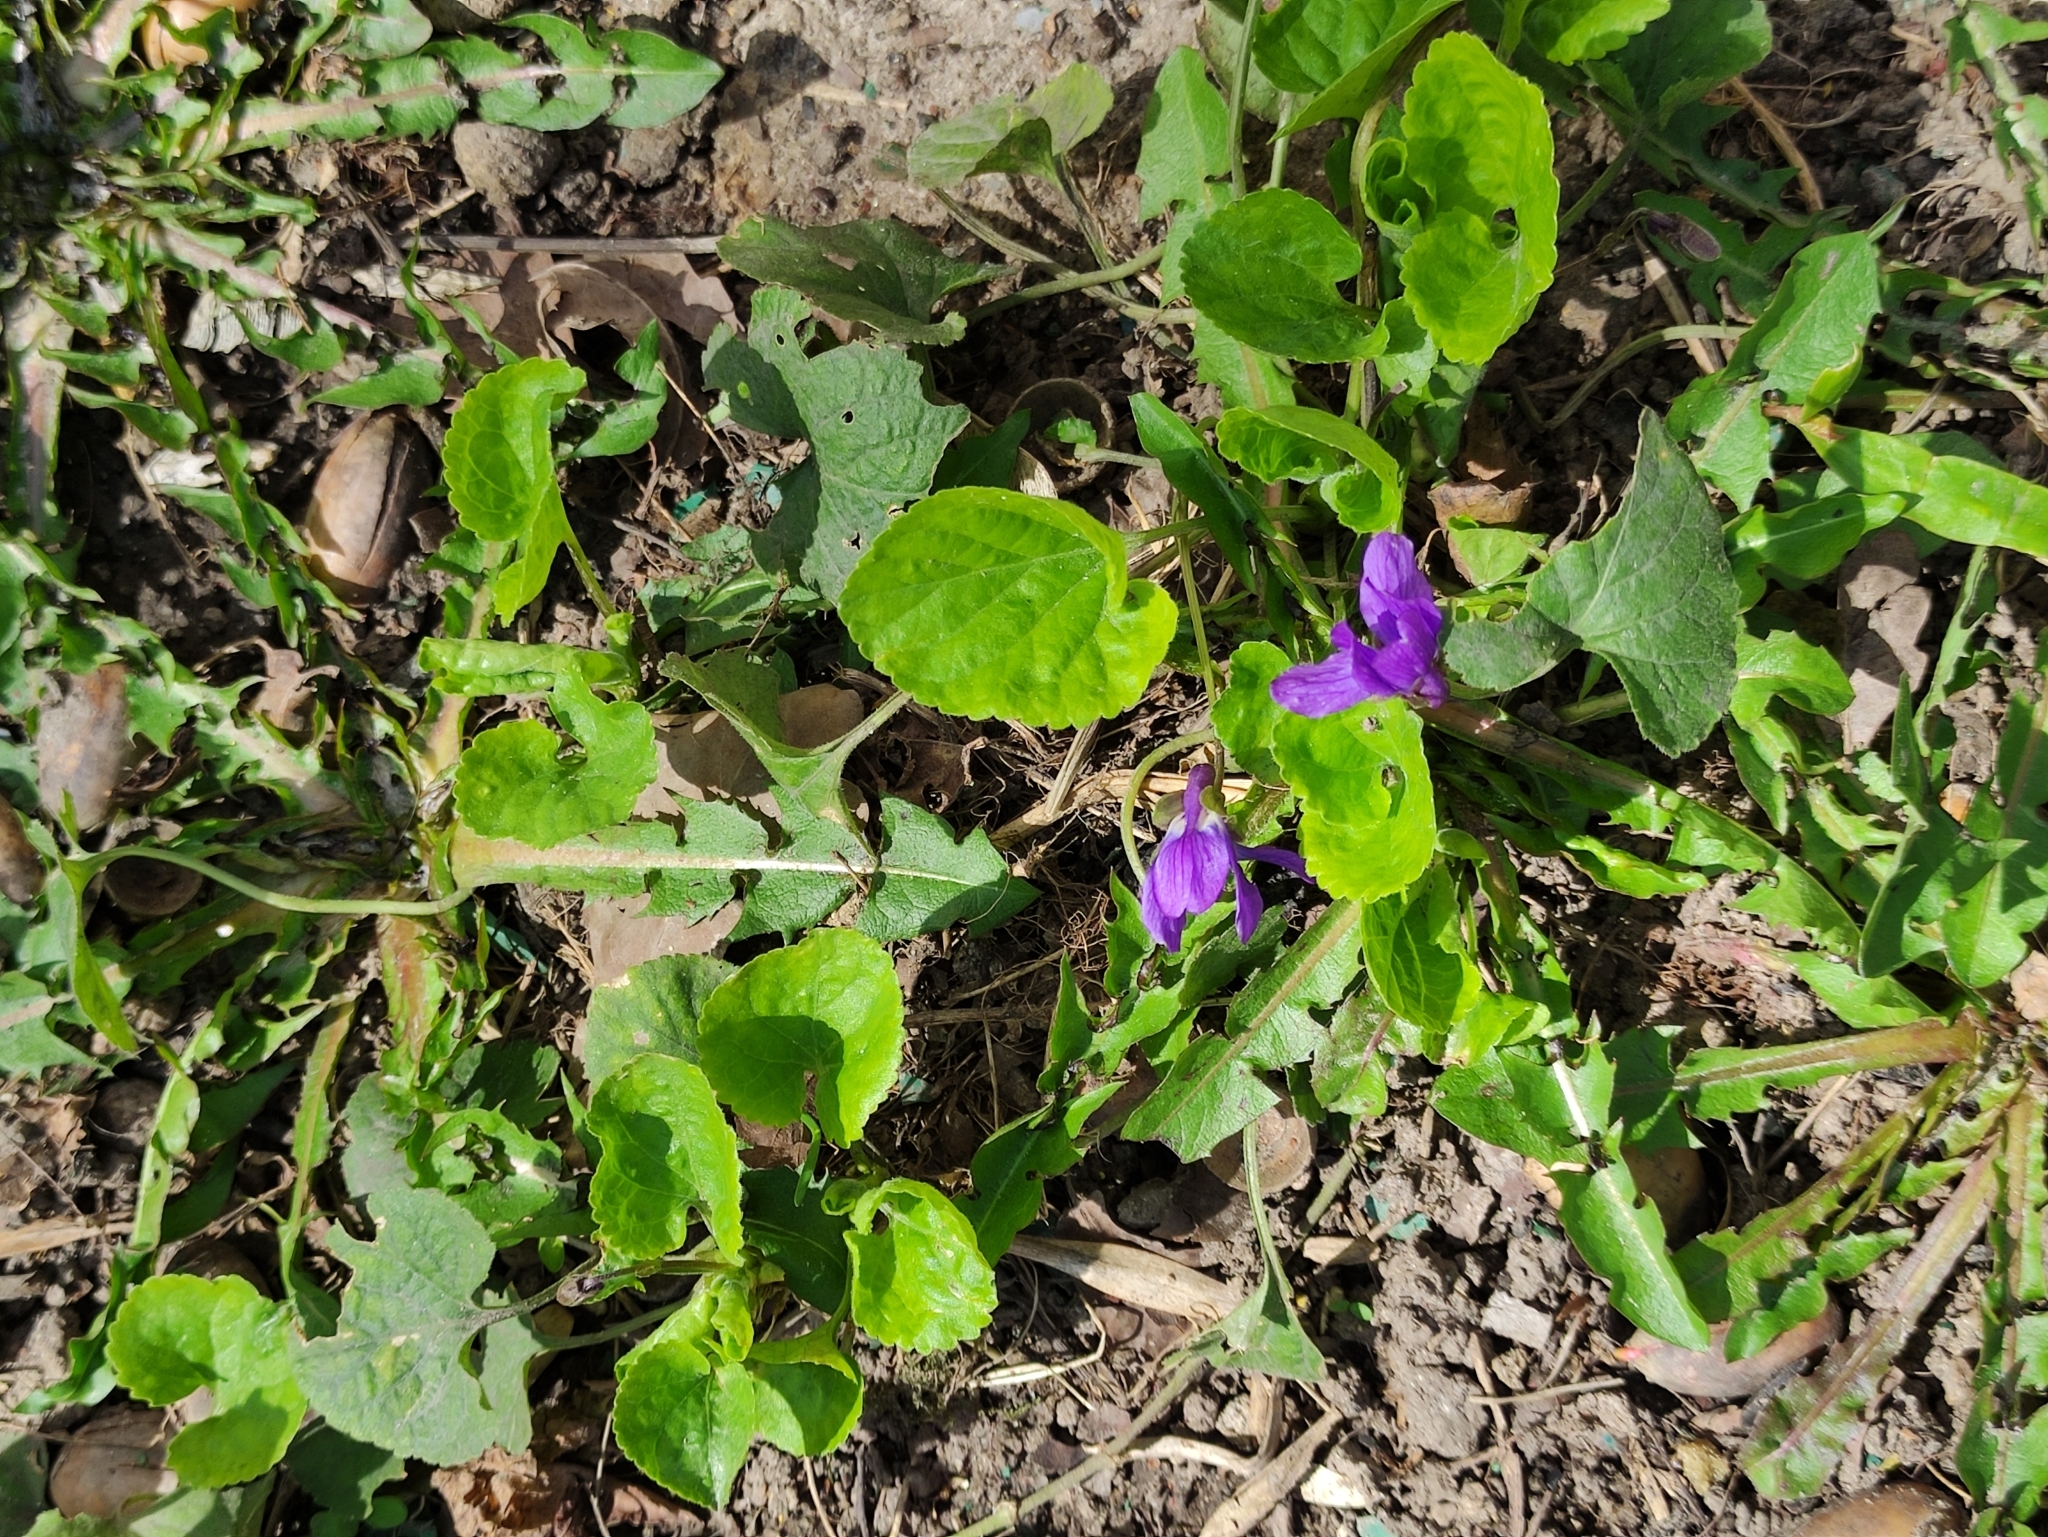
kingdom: Plantae
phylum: Tracheophyta
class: Magnoliopsida
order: Malpighiales
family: Violaceae
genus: Viola
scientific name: Viola odorata
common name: Sweet violet
